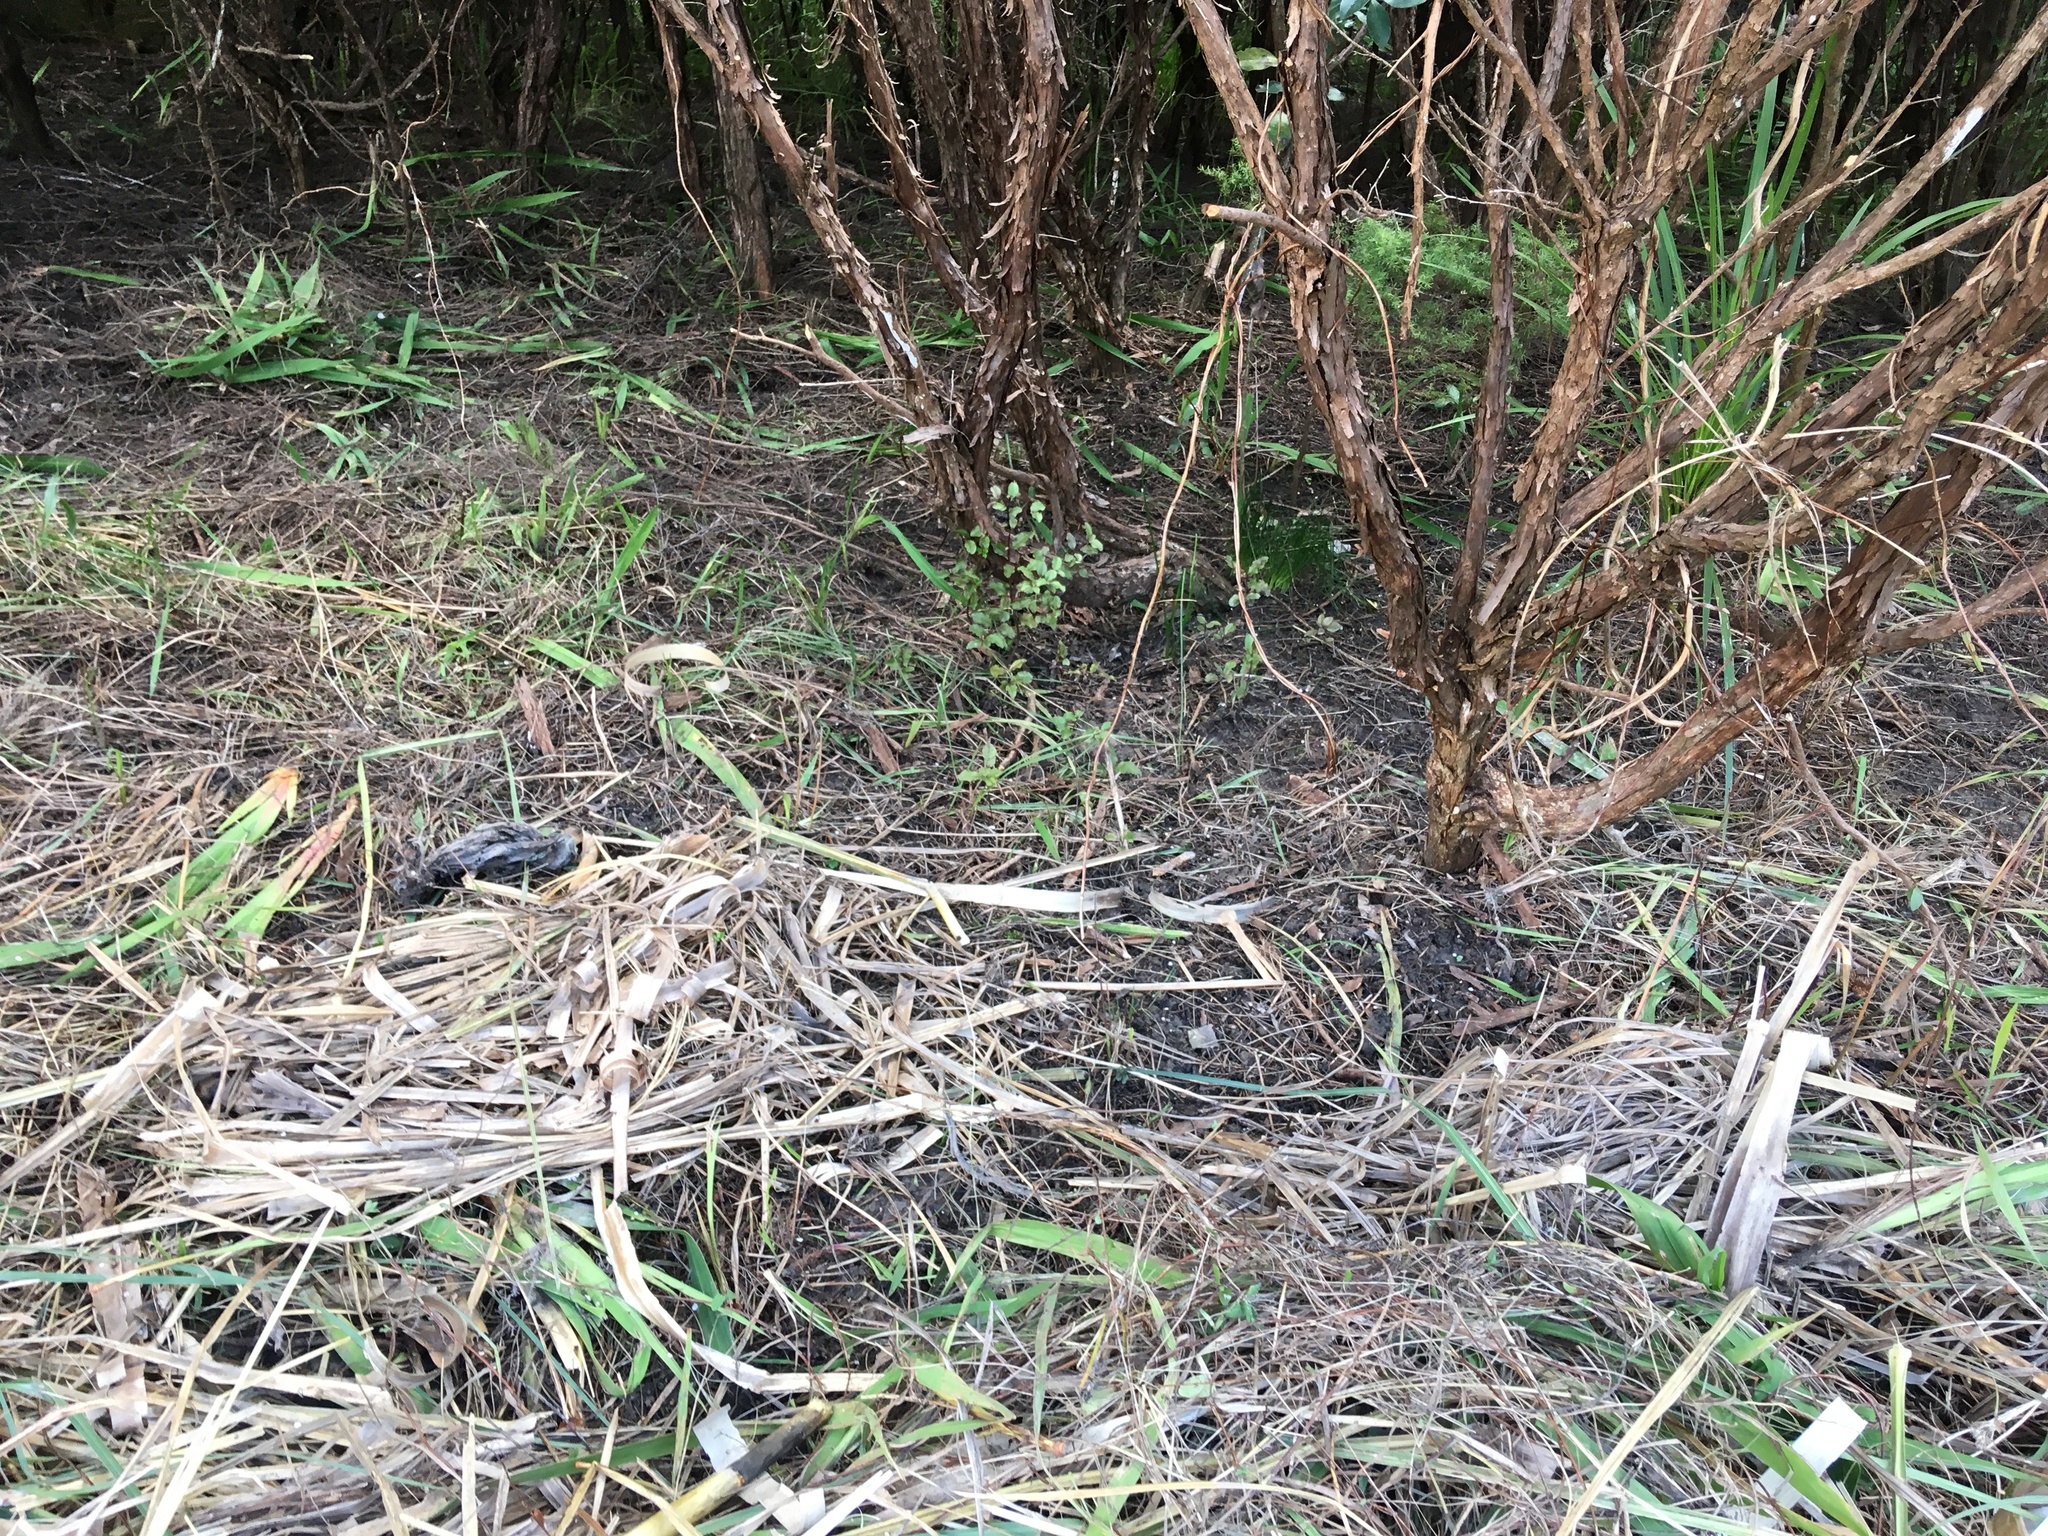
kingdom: Plantae
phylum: Tracheophyta
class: Magnoliopsida
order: Ericales
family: Primulaceae
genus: Myrsine
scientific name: Myrsine australis
